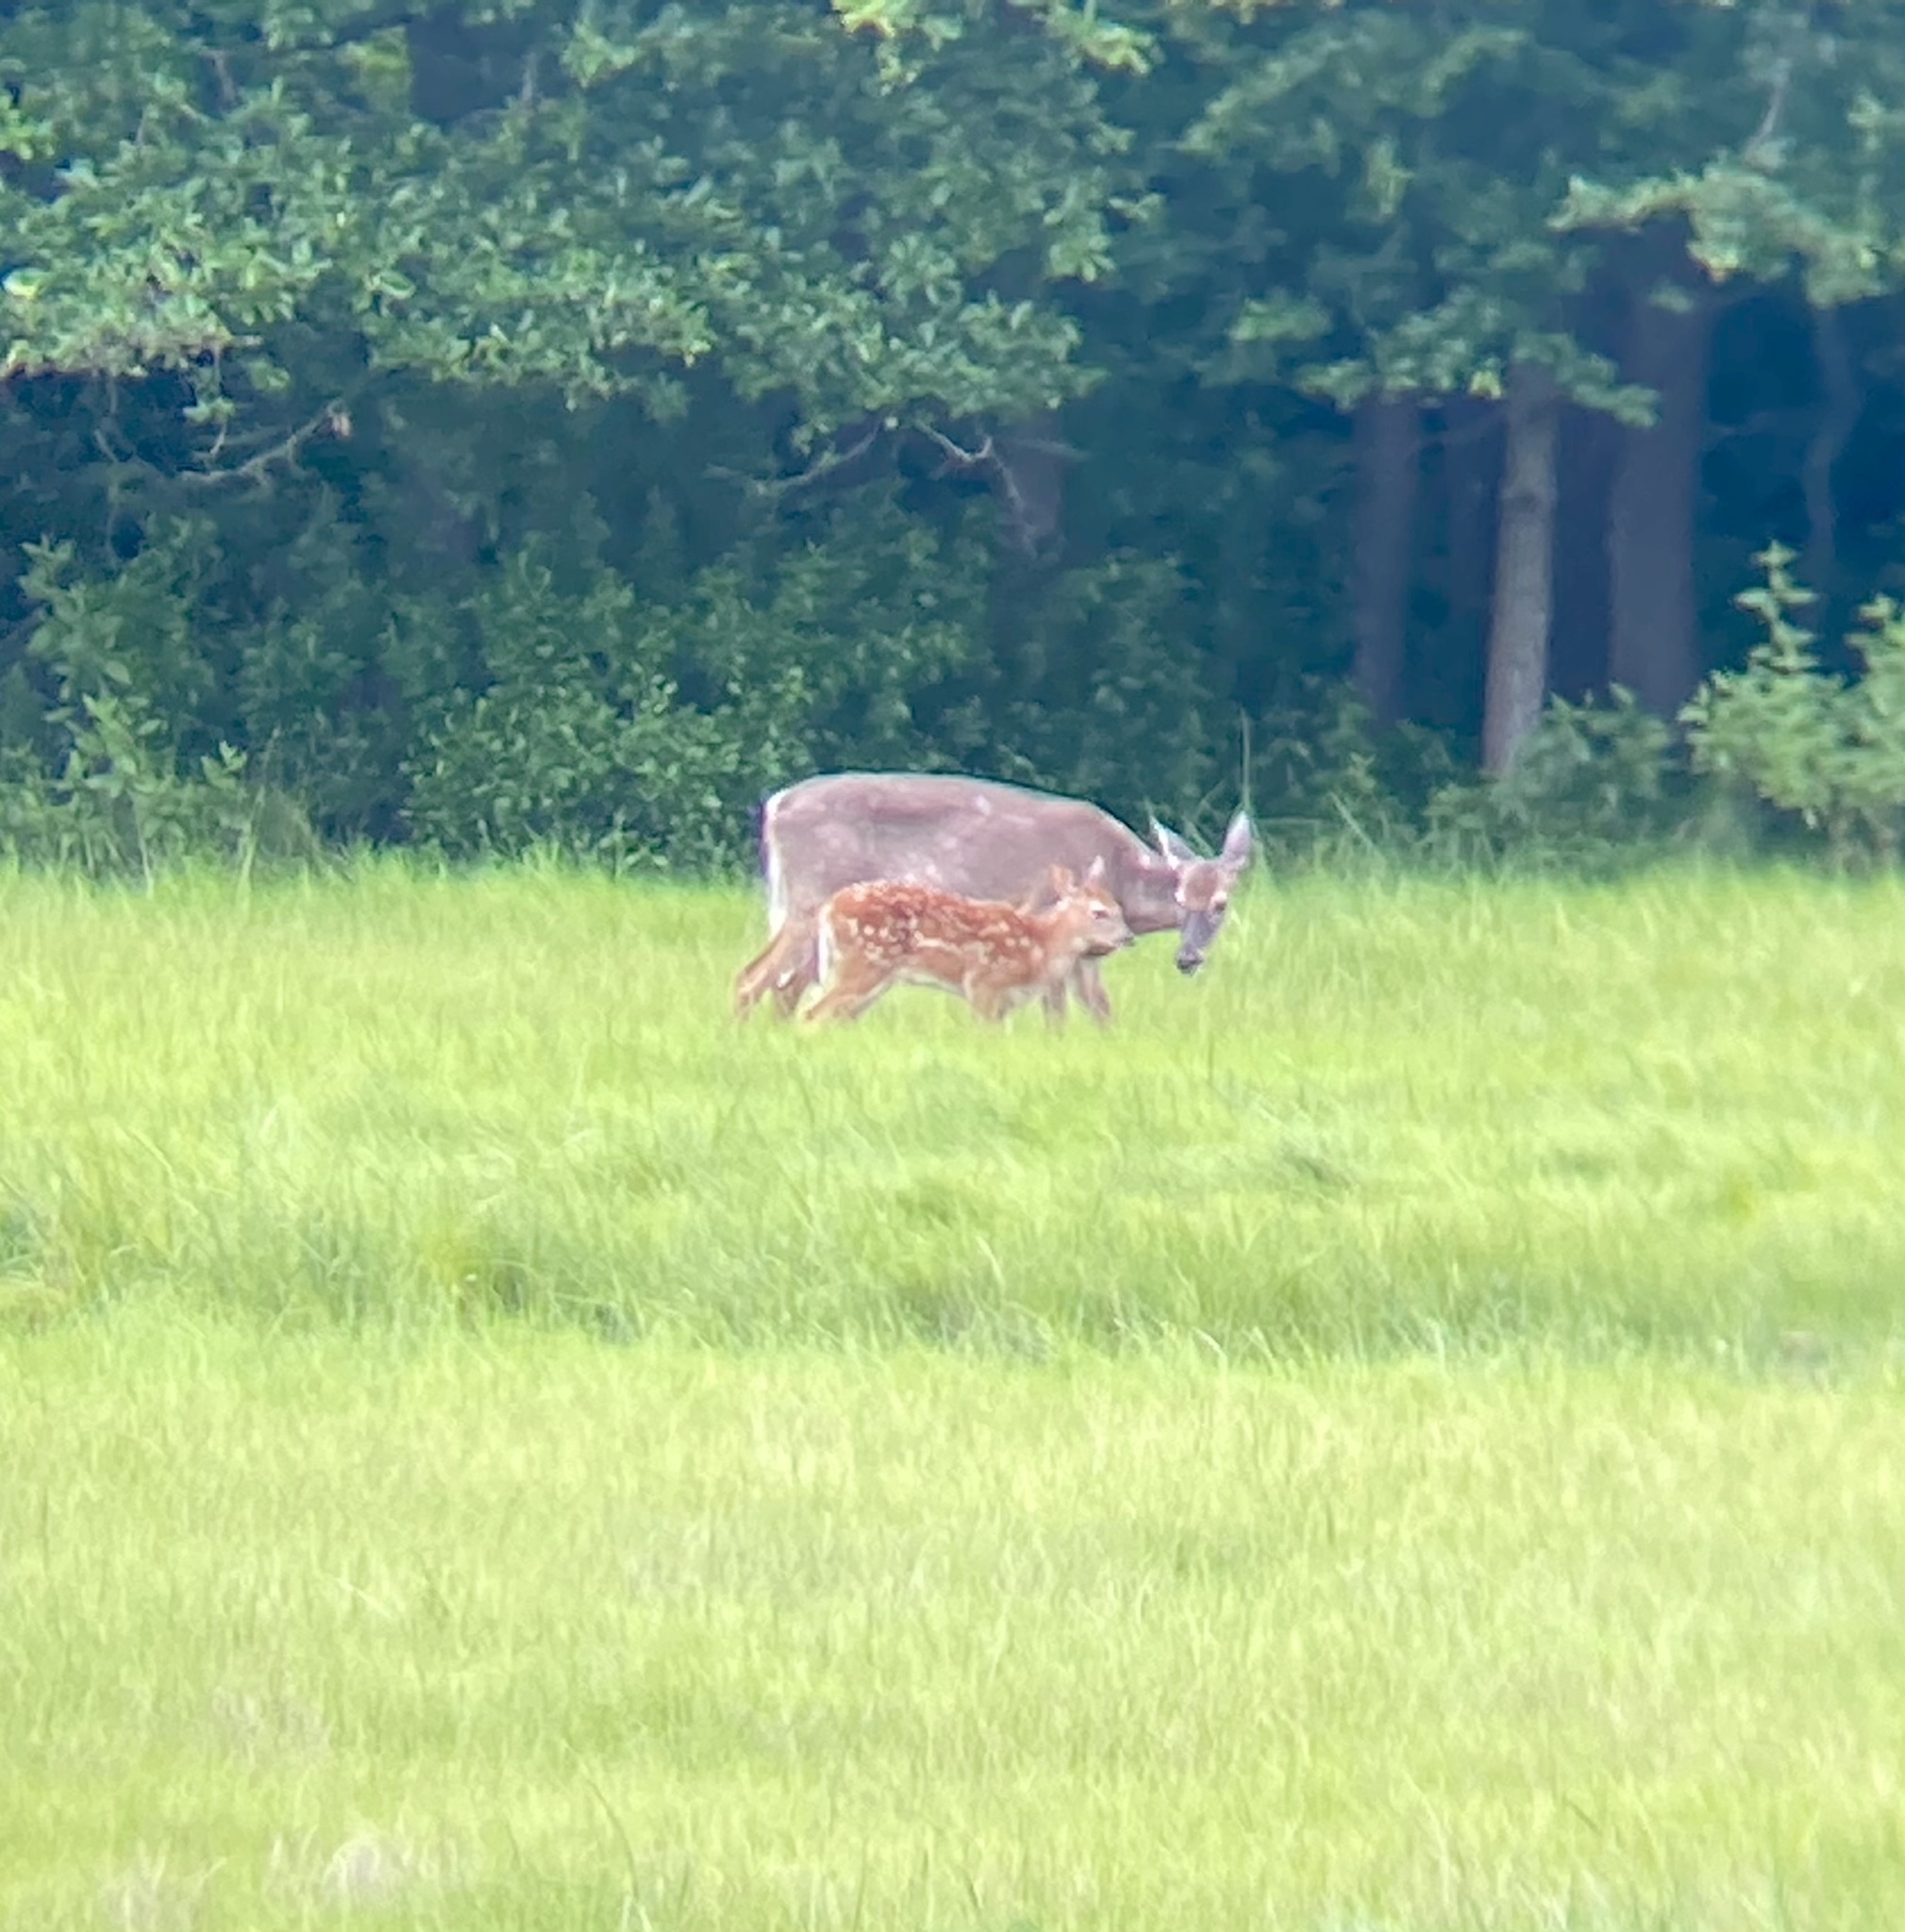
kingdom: Animalia
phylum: Chordata
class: Mammalia
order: Artiodactyla
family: Cervidae
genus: Odocoileus
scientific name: Odocoileus virginianus
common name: White-tailed deer
